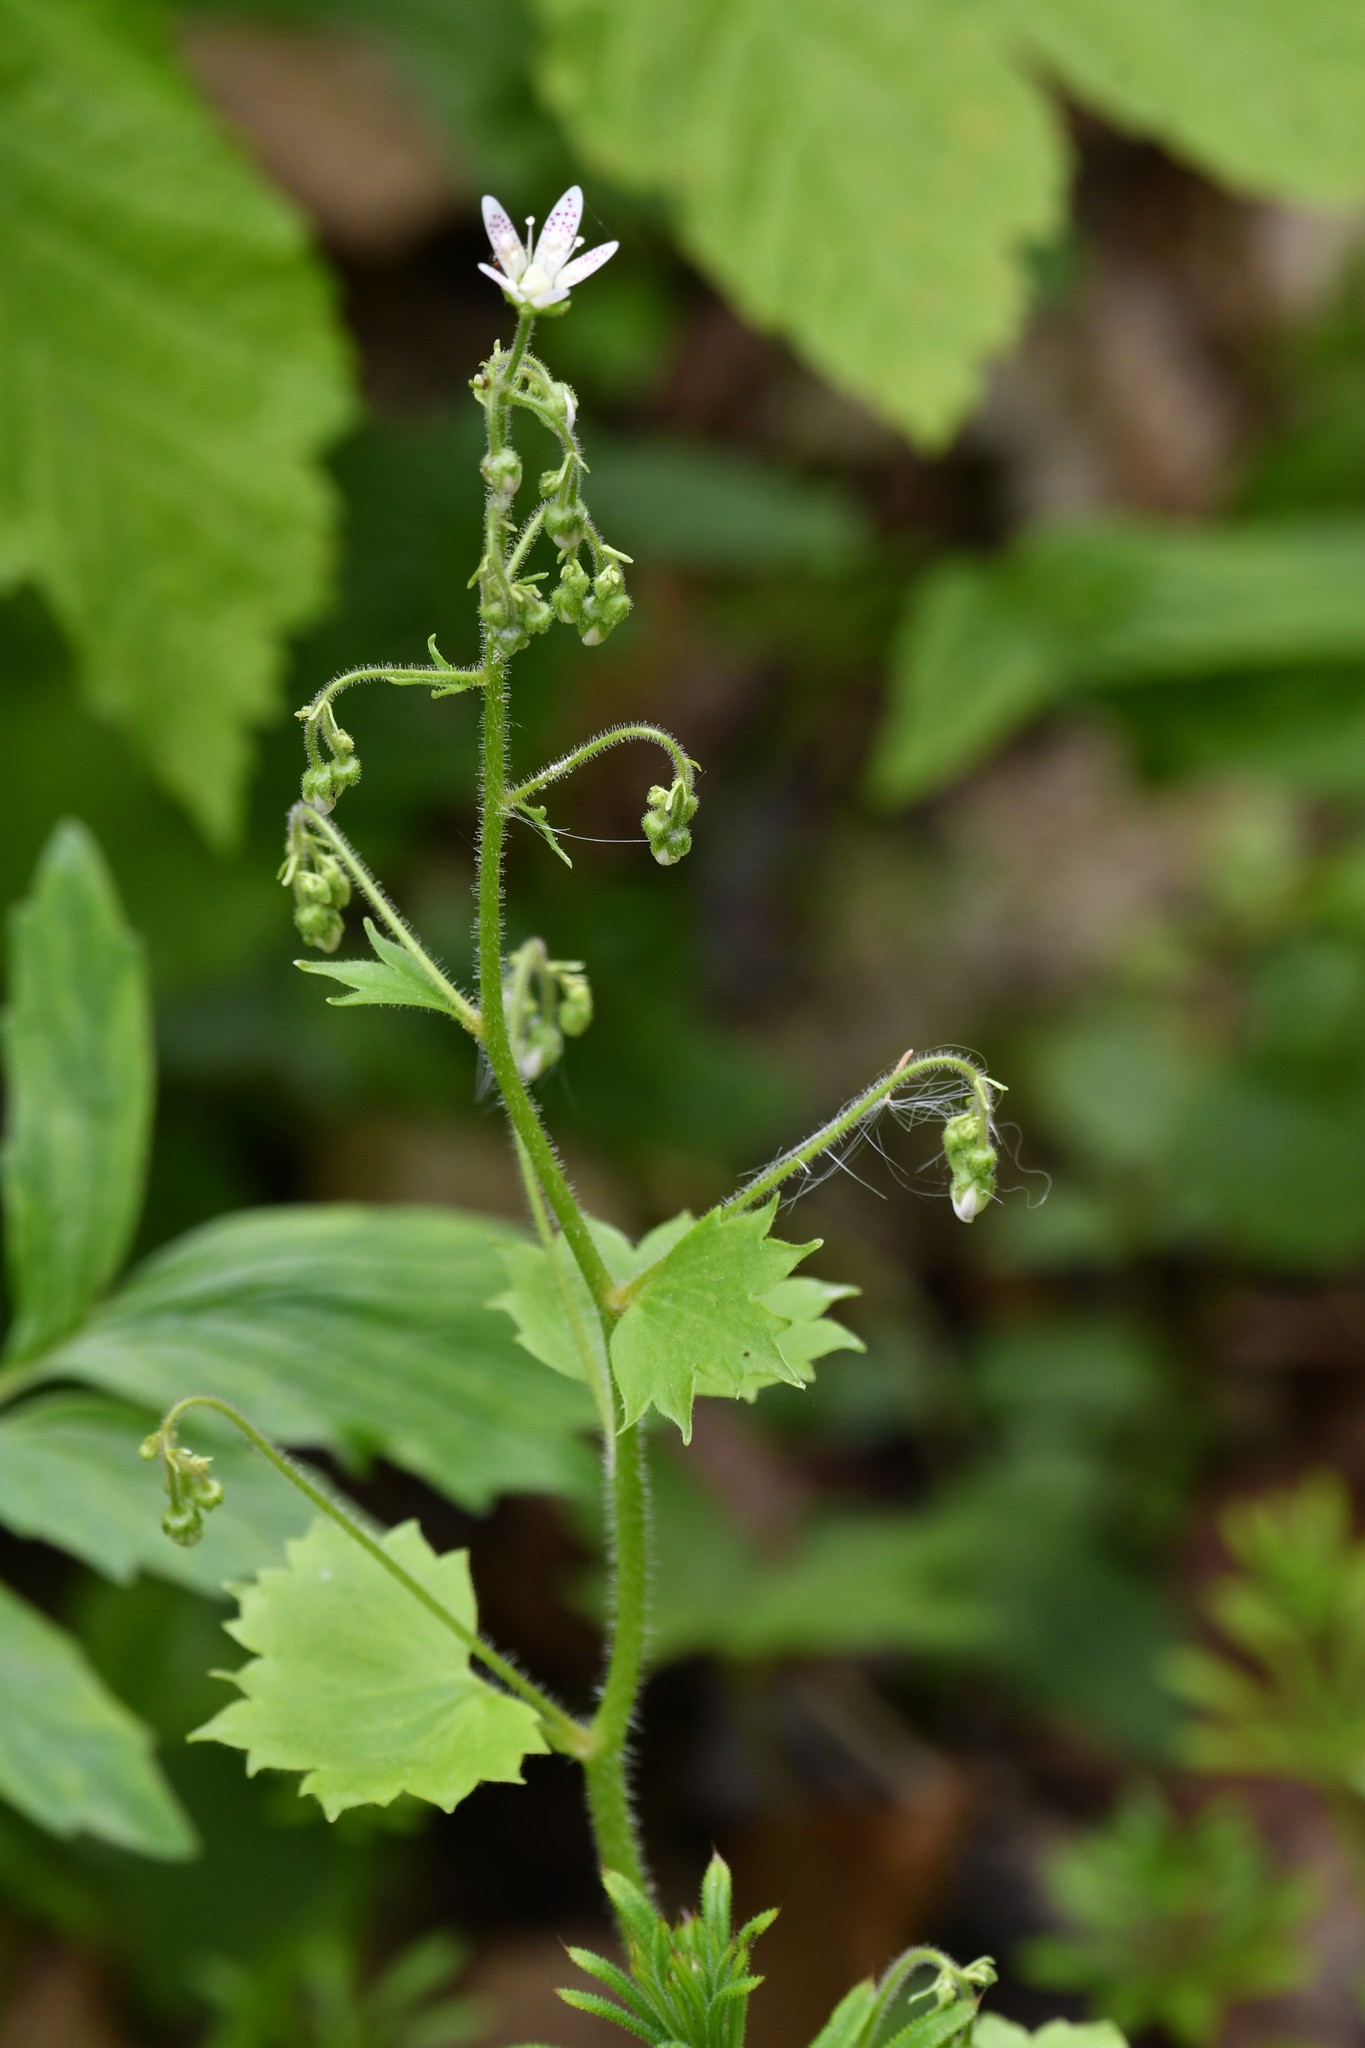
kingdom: Plantae
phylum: Tracheophyta
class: Magnoliopsida
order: Saxifragales
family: Saxifragaceae
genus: Saxifraga
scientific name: Saxifraga rotundifolia
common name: Round-leaved saxifrage
